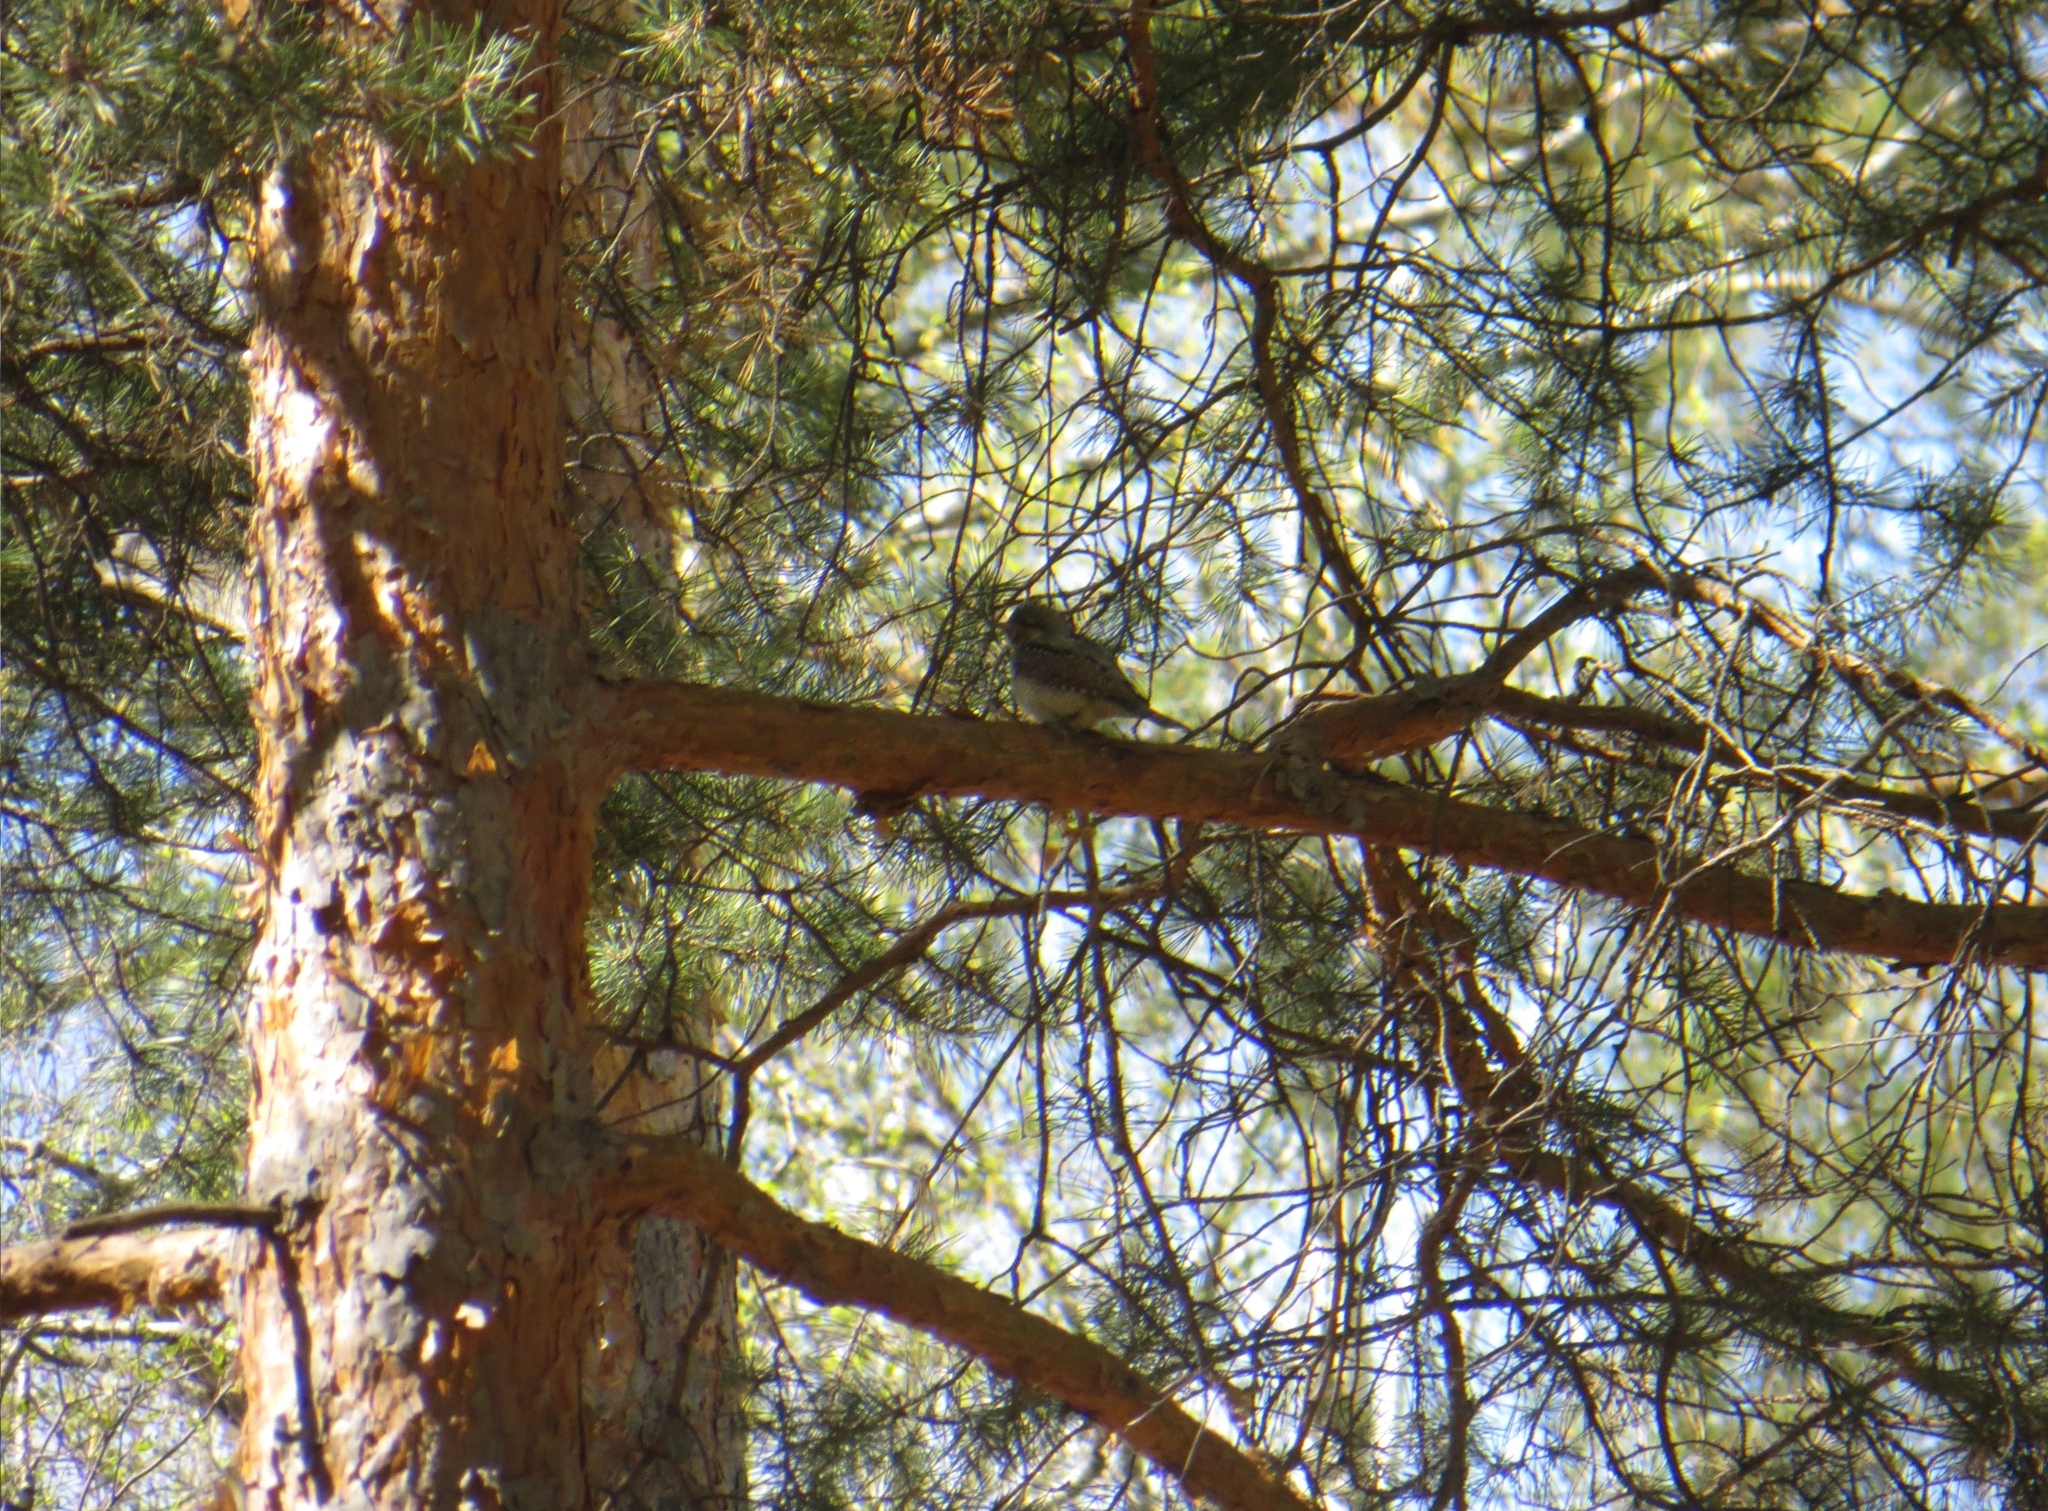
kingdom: Animalia
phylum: Chordata
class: Aves
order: Piciformes
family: Picidae
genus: Jynx
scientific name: Jynx torquilla
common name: Eurasian wryneck
